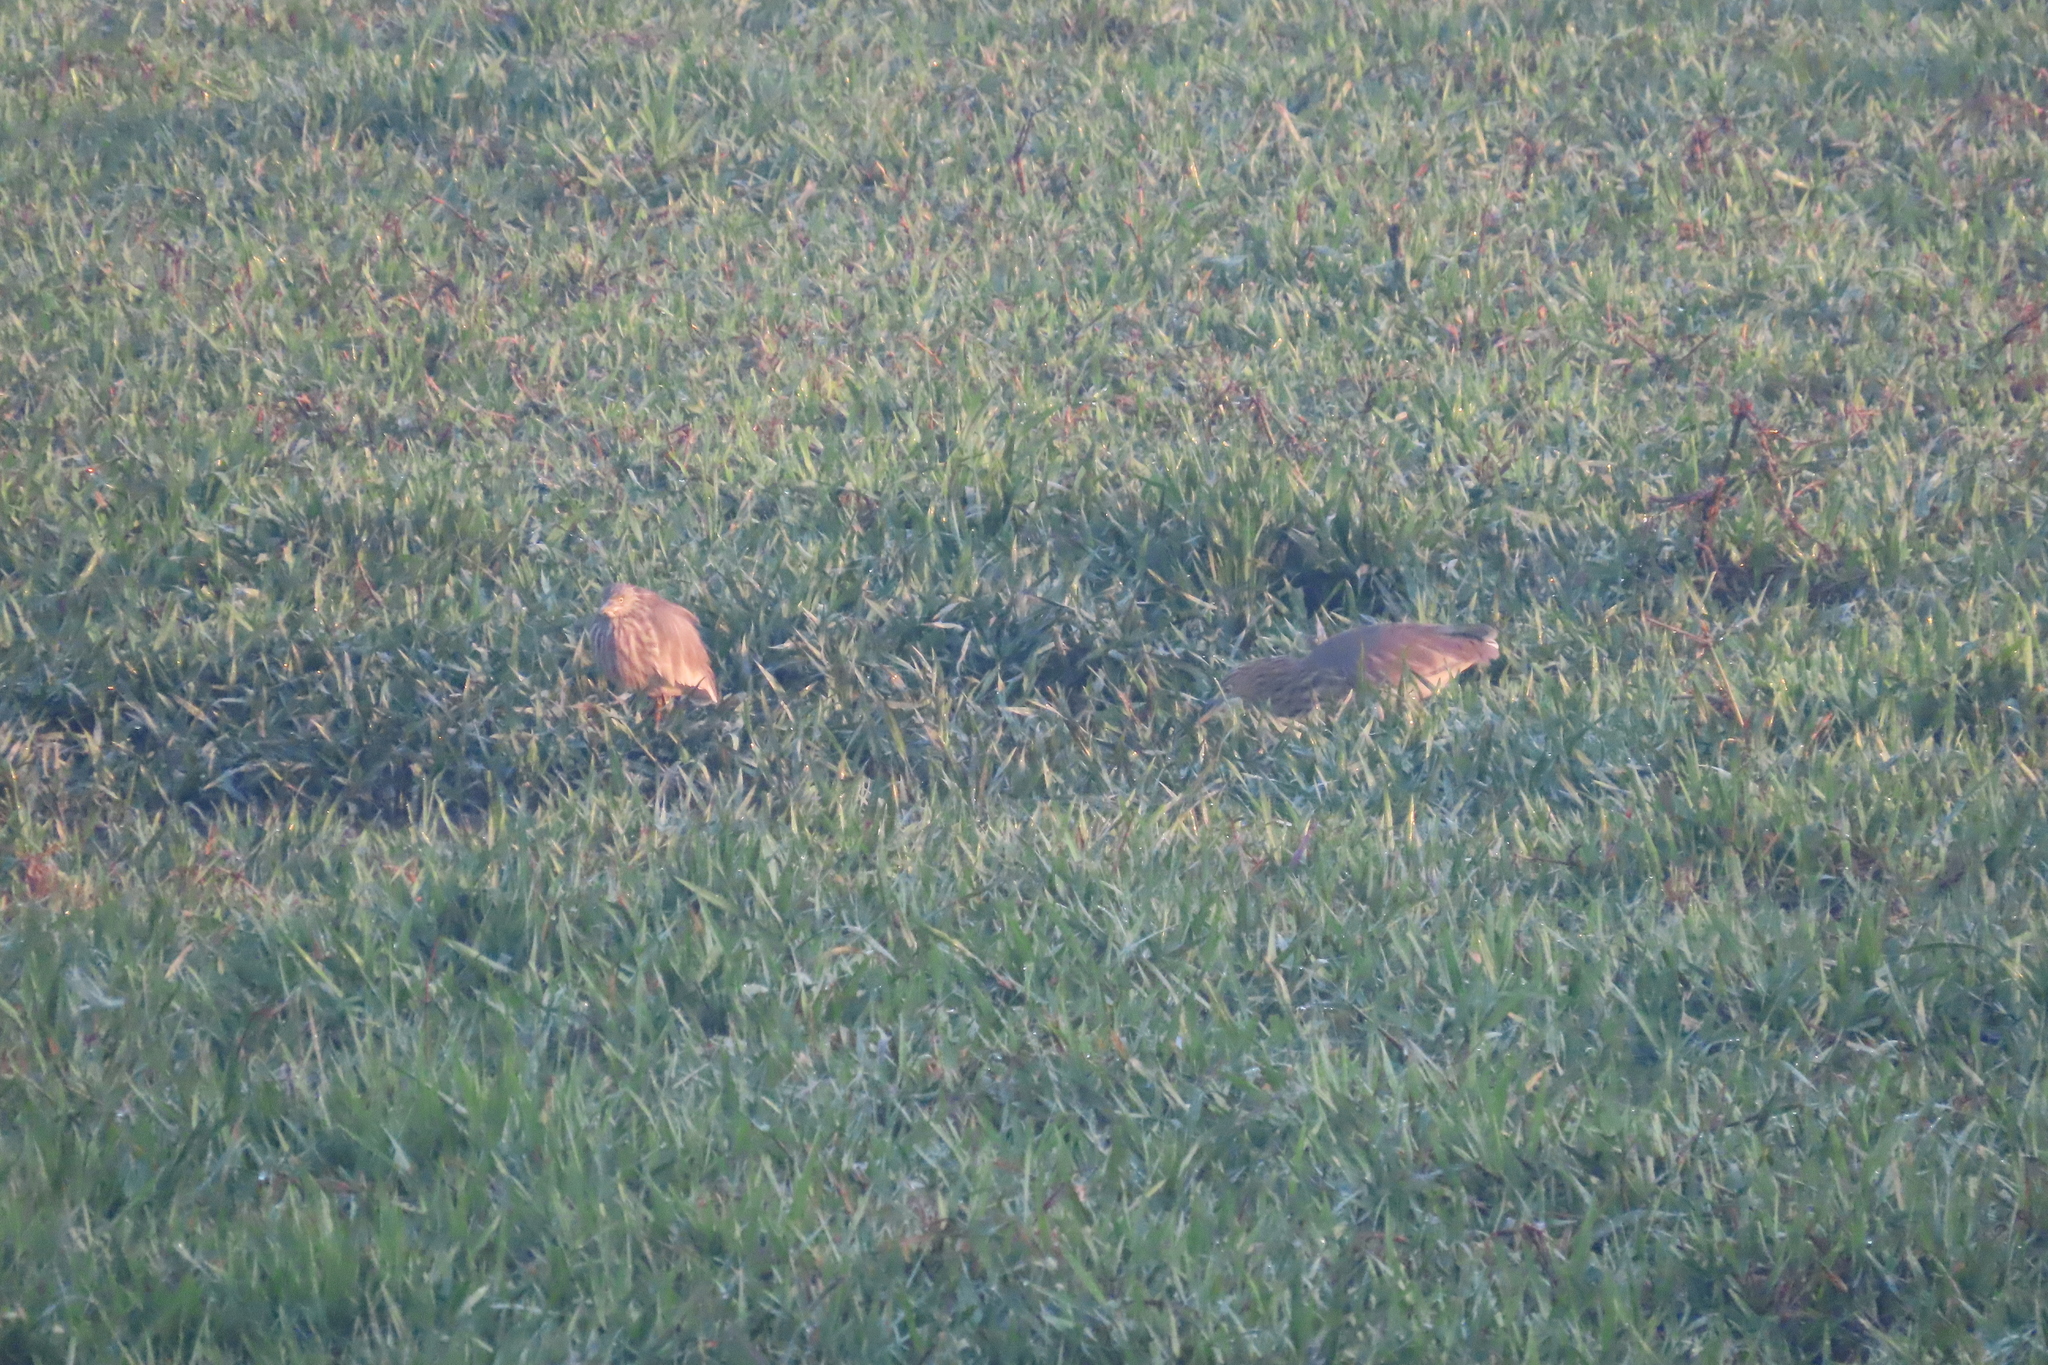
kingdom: Animalia
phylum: Chordata
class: Aves
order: Pelecaniformes
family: Ardeidae
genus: Ardeola
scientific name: Ardeola grayii
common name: Indian pond heron
